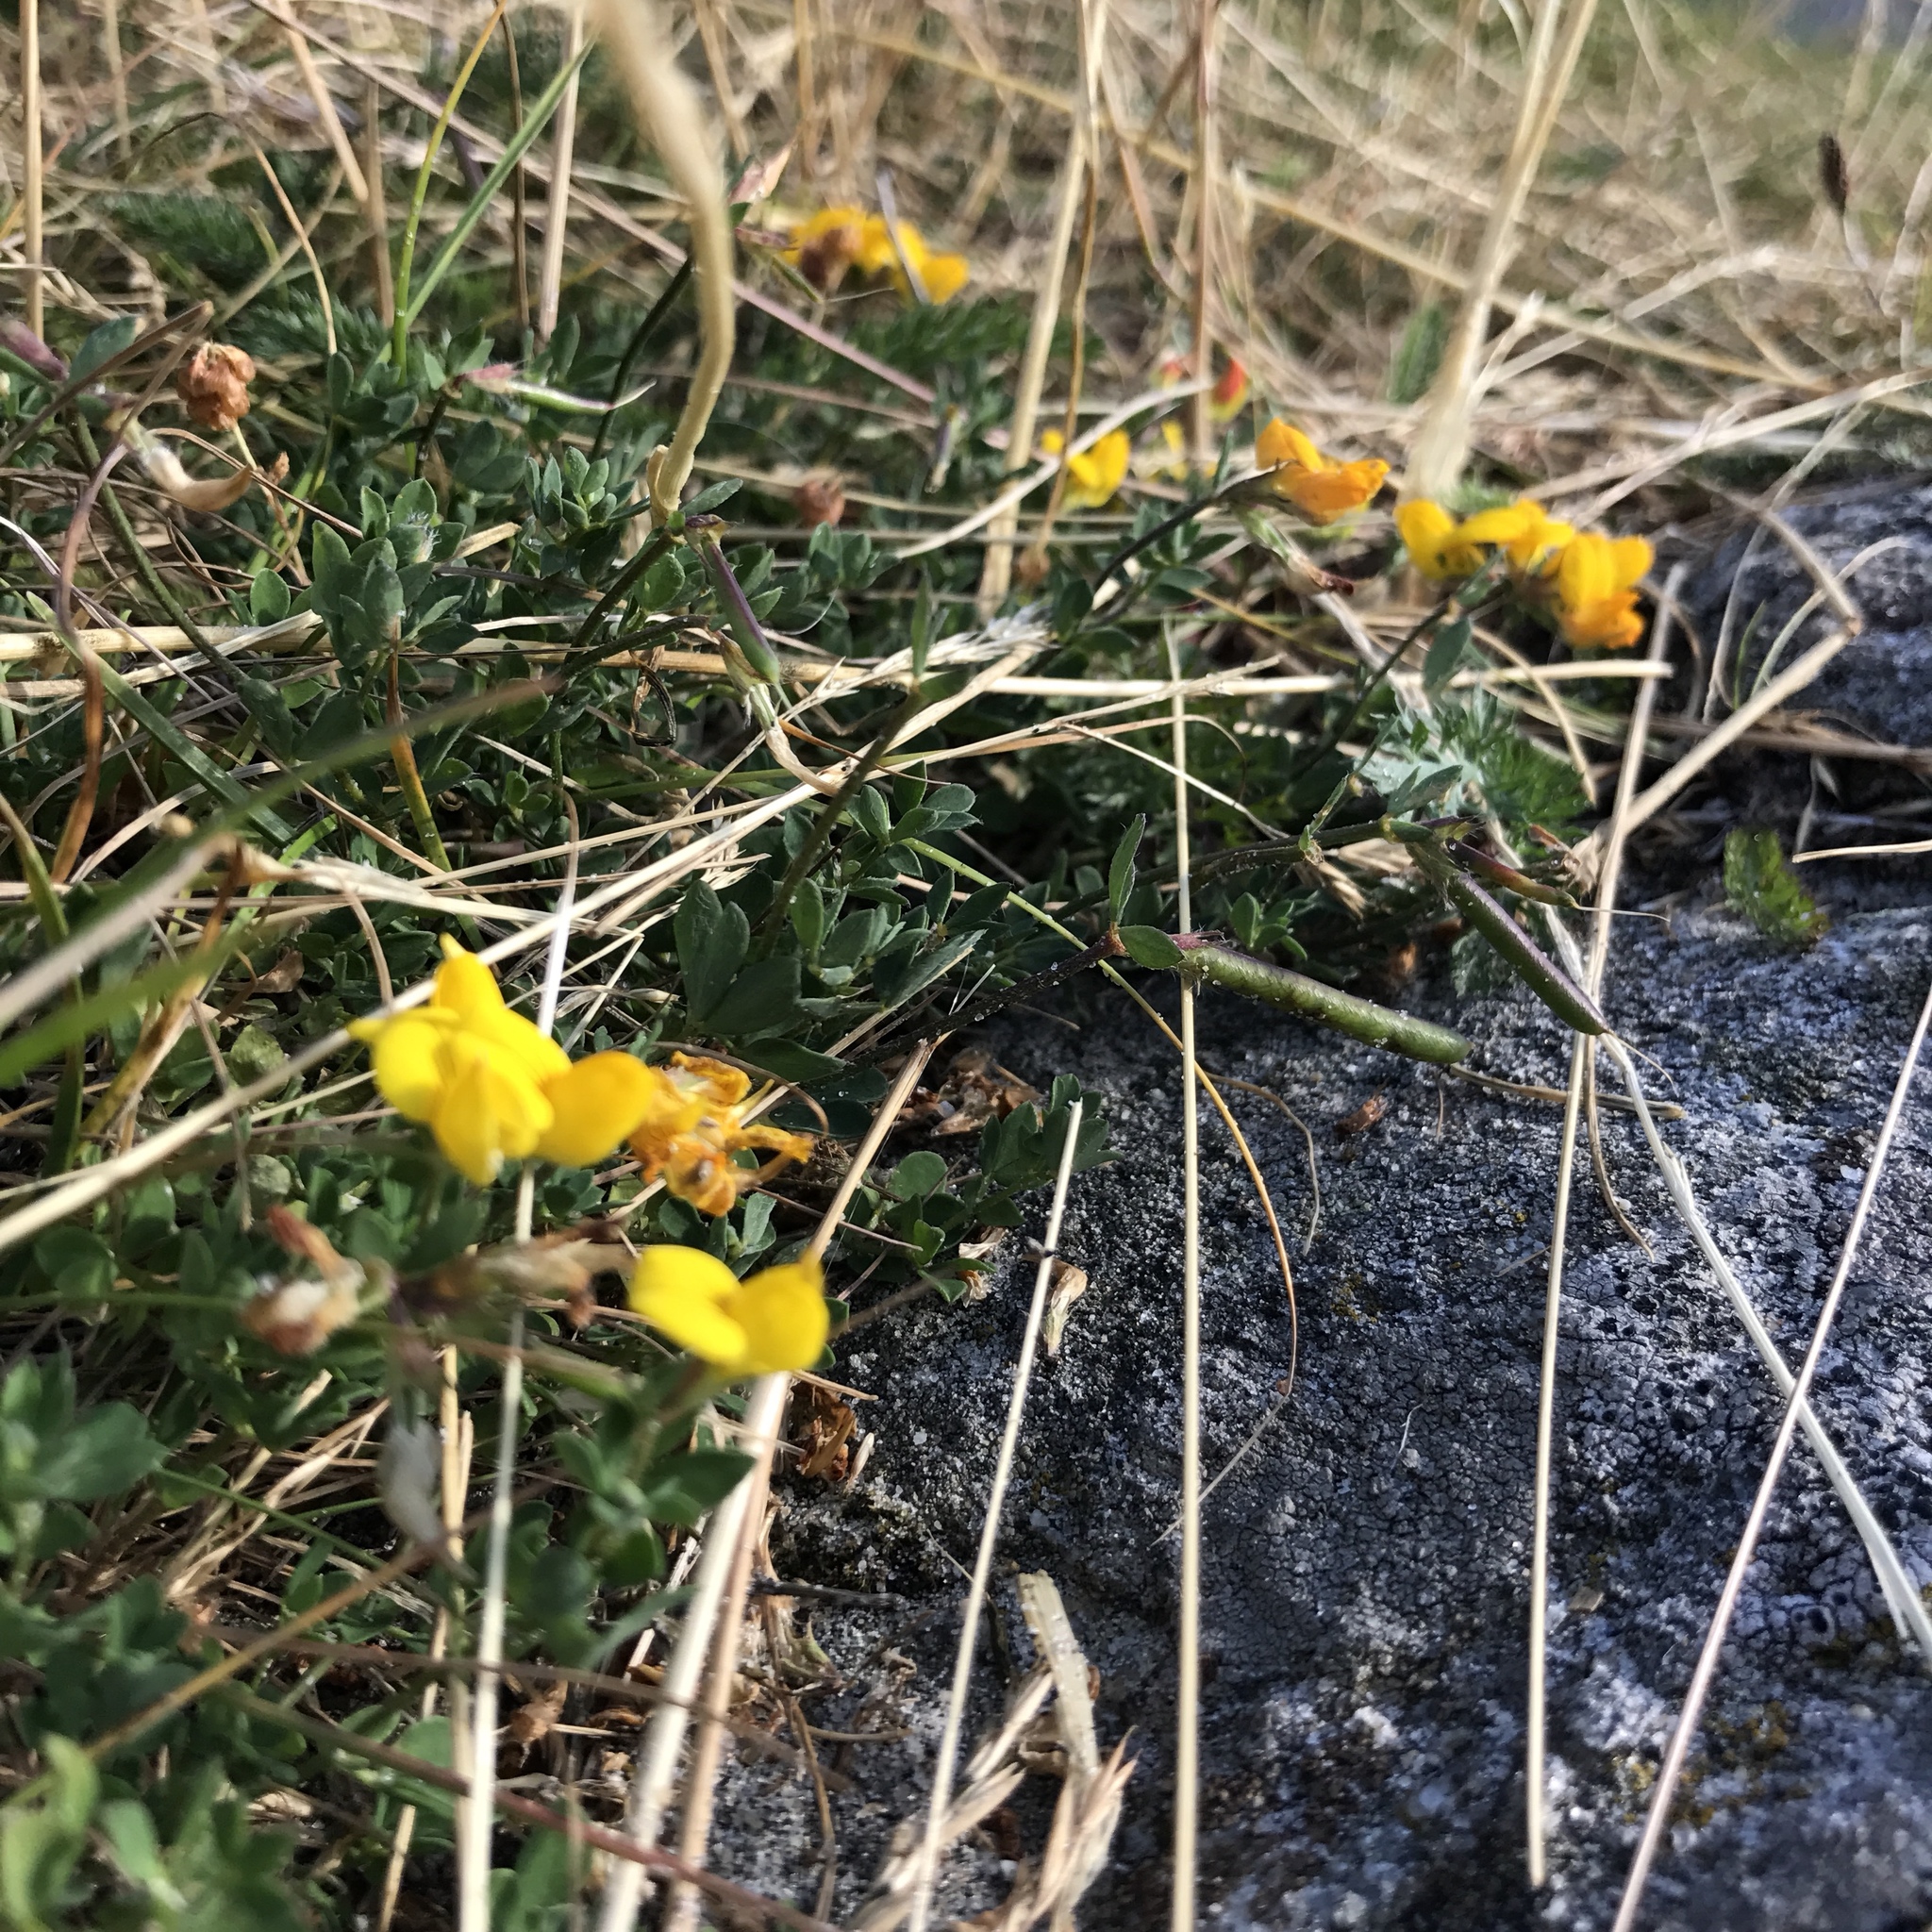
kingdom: Plantae
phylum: Tracheophyta
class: Magnoliopsida
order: Fabales
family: Fabaceae
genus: Lotus
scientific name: Lotus corniculatus
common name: Common bird's-foot-trefoil
